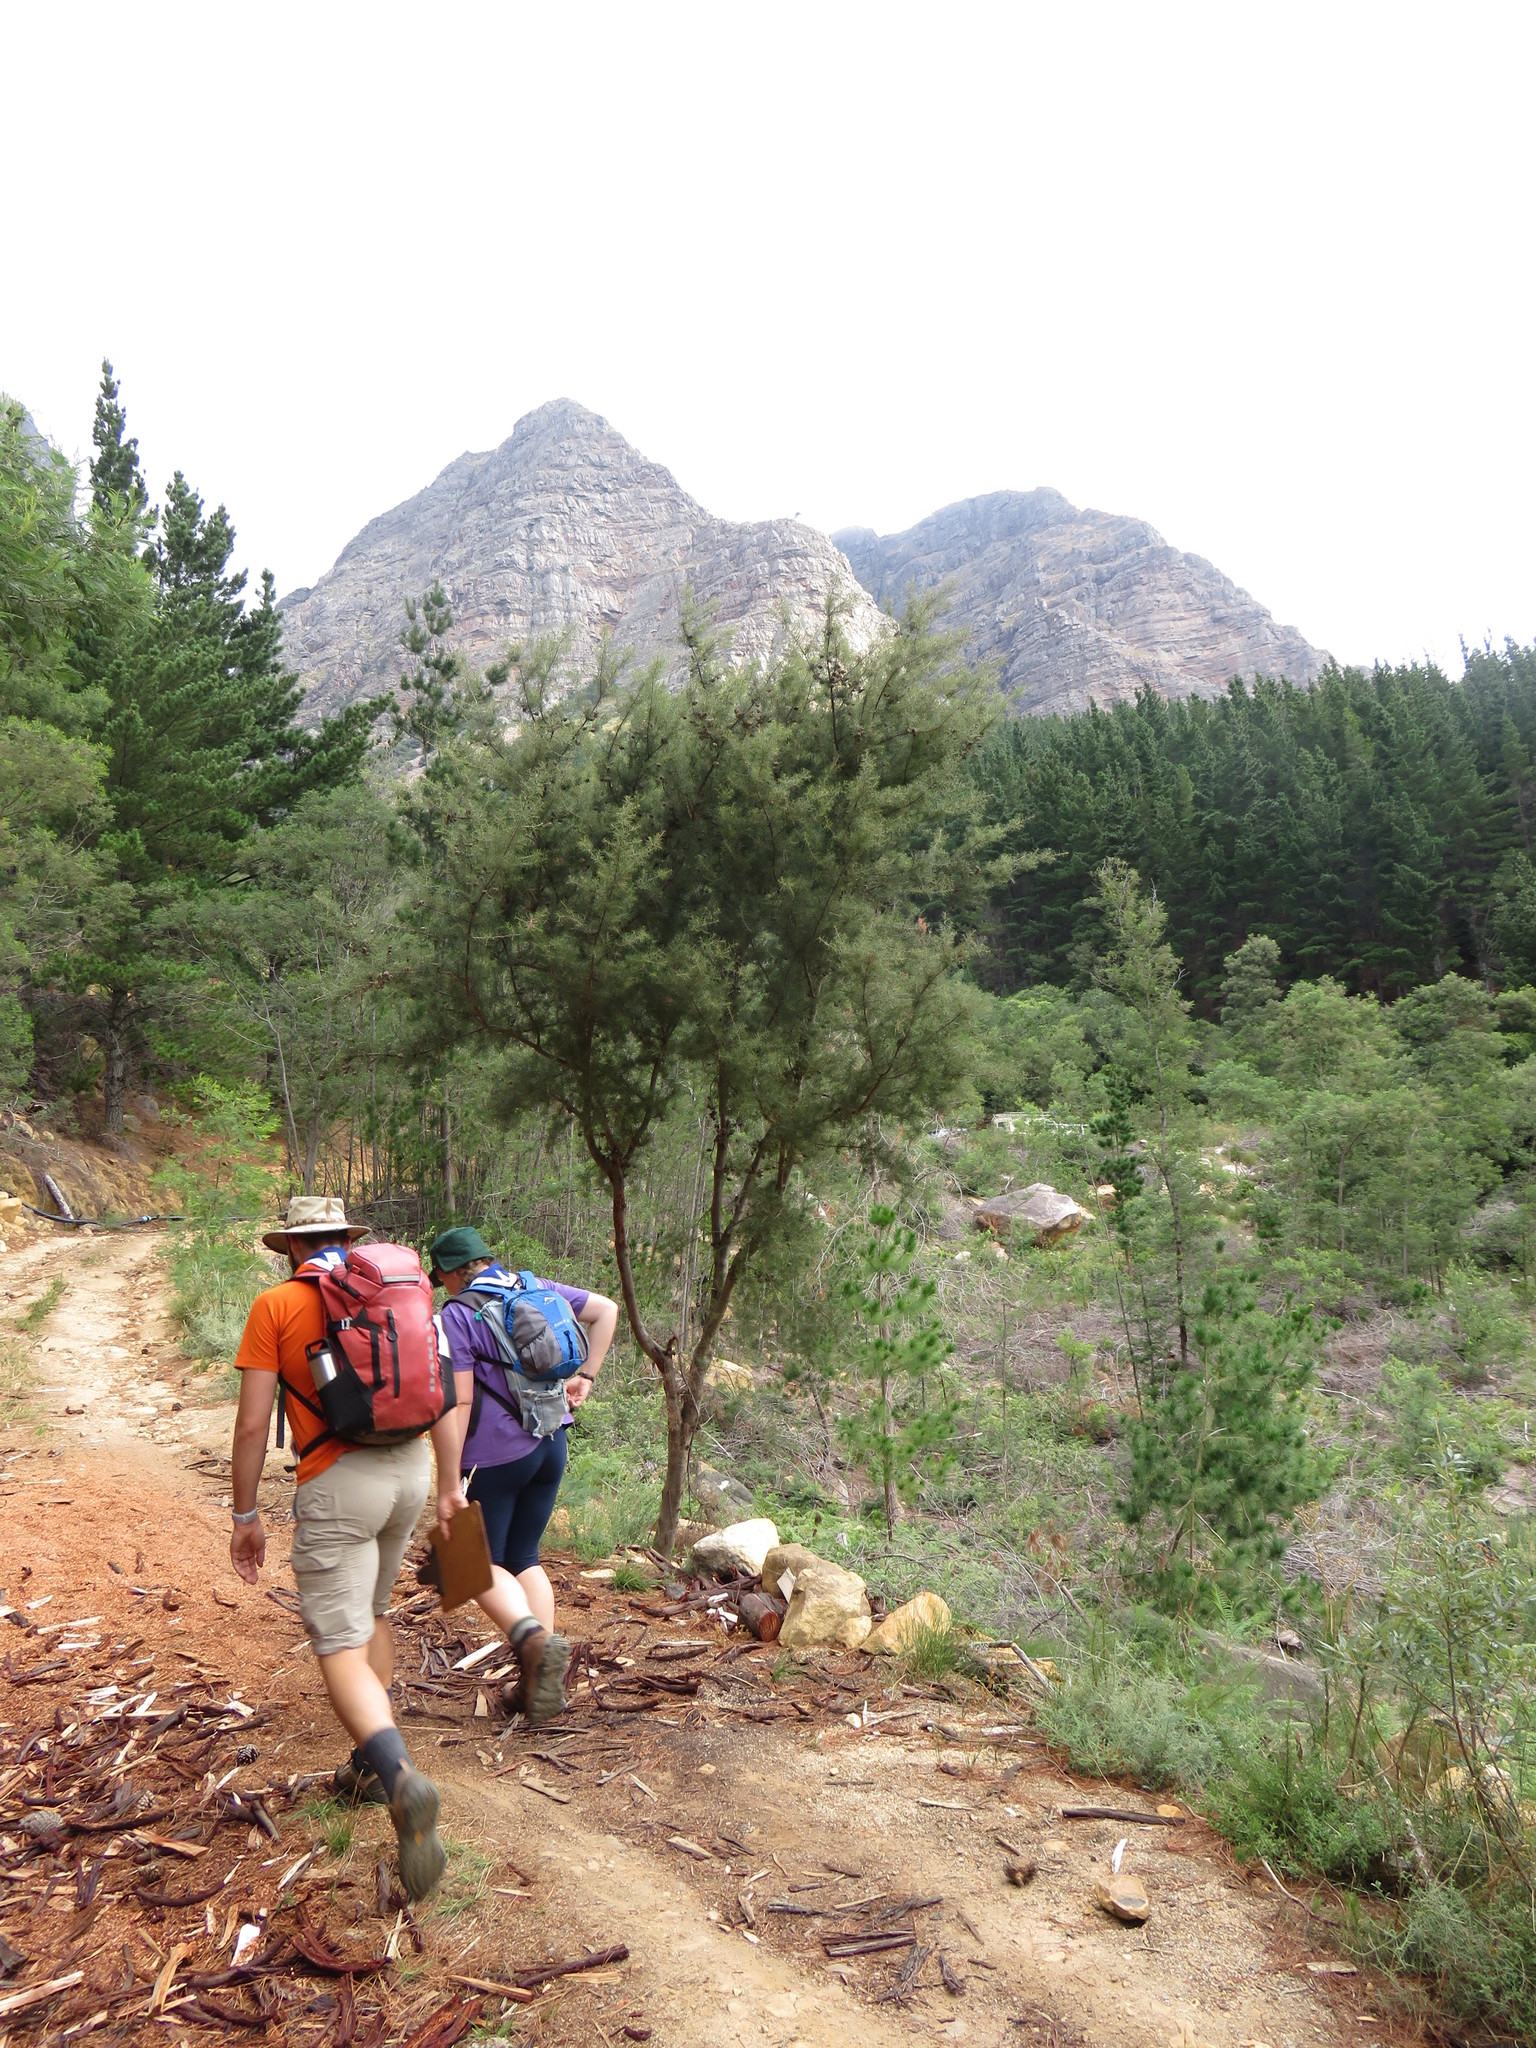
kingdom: Plantae
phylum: Tracheophyta
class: Magnoliopsida
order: Proteales
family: Proteaceae
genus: Hakea
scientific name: Hakea sericea
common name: Needle bush
